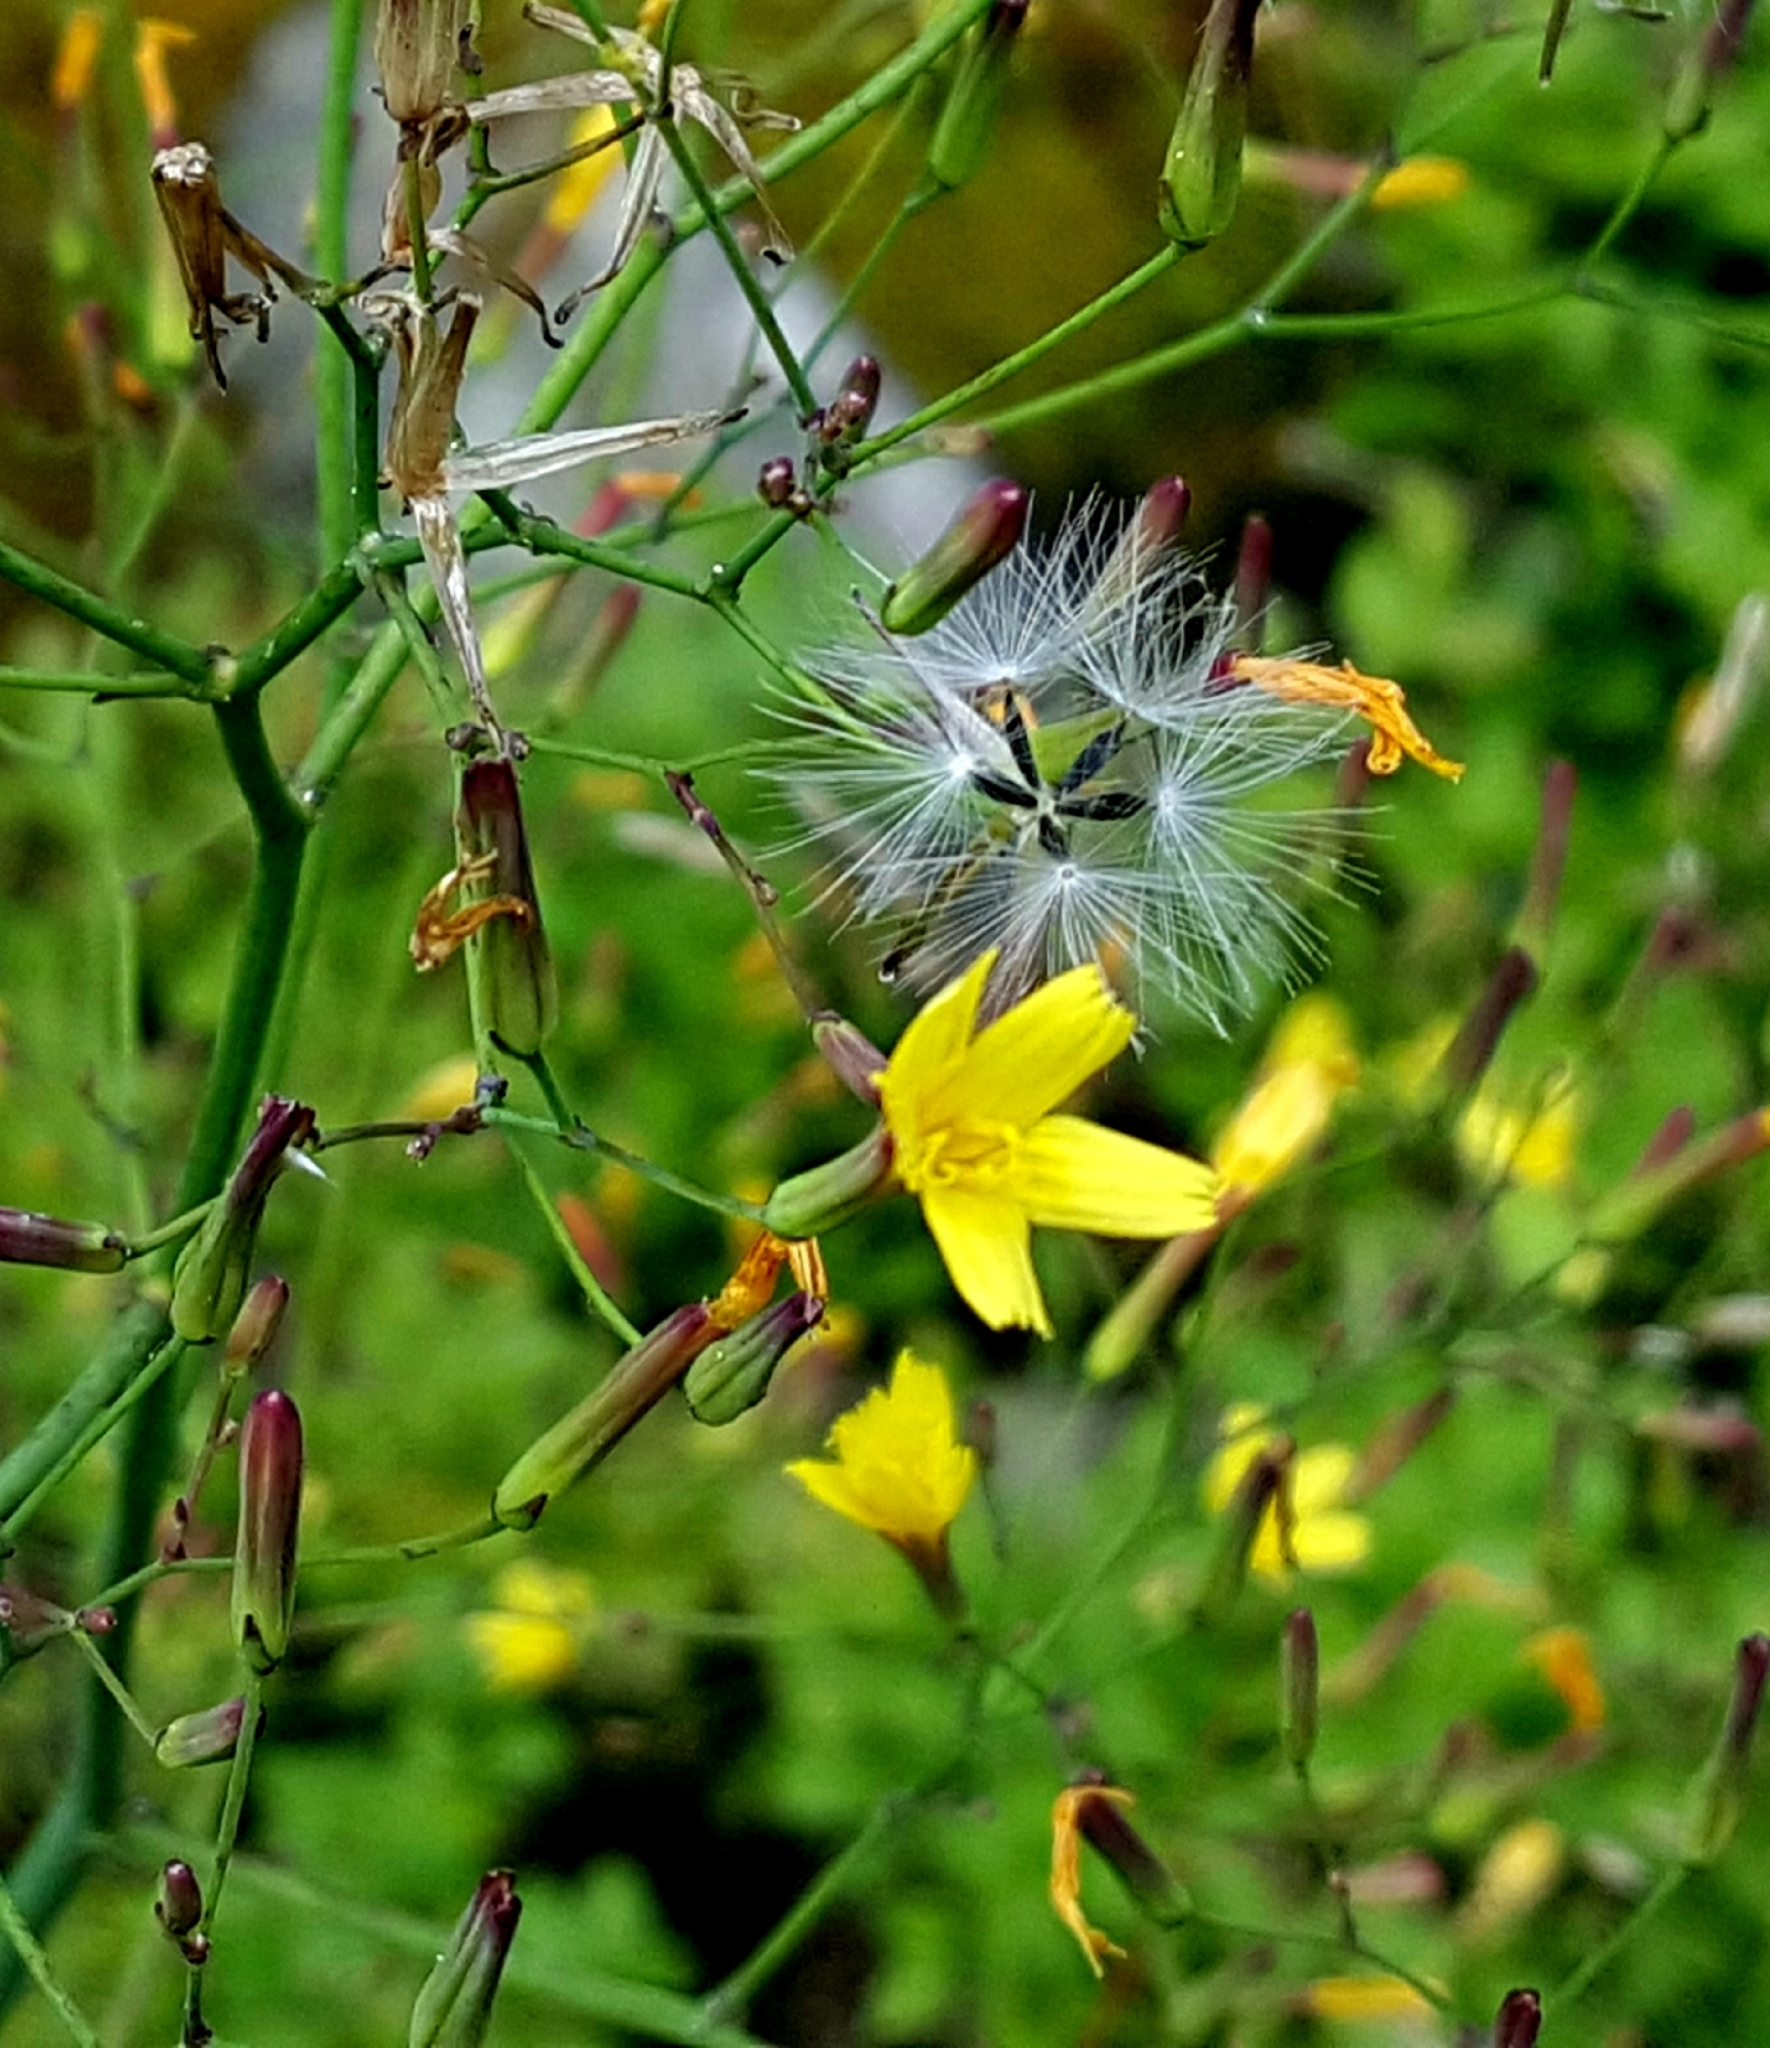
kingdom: Plantae
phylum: Tracheophyta
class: Magnoliopsida
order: Asterales
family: Asteraceae
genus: Mycelis
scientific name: Mycelis muralis
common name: Wall lettuce
